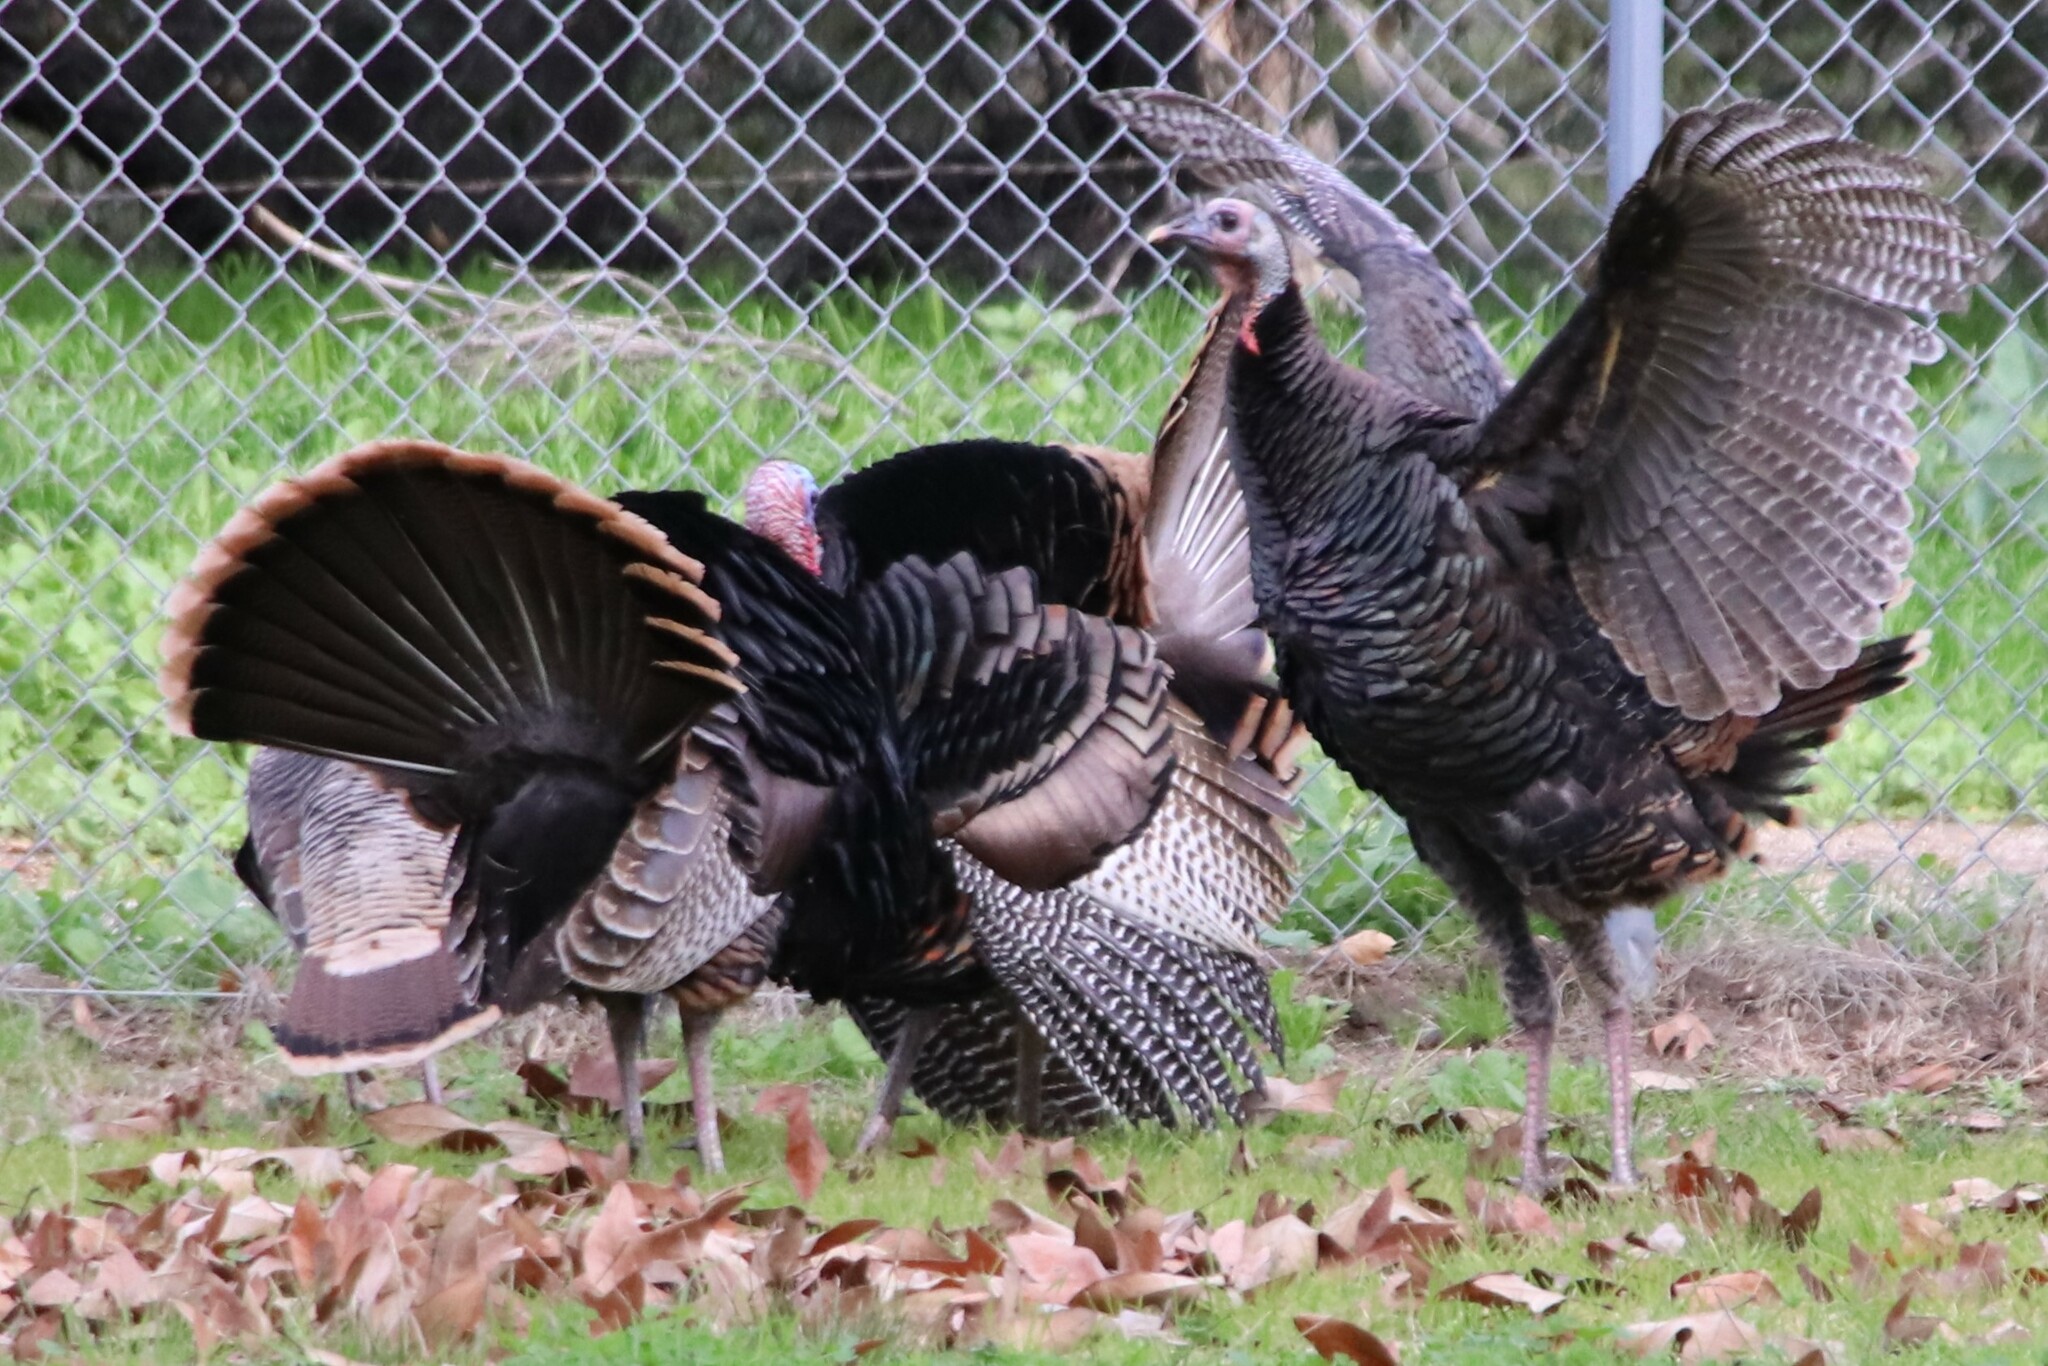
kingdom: Animalia
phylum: Chordata
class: Aves
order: Galliformes
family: Phasianidae
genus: Meleagris
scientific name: Meleagris gallopavo
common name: Wild turkey
